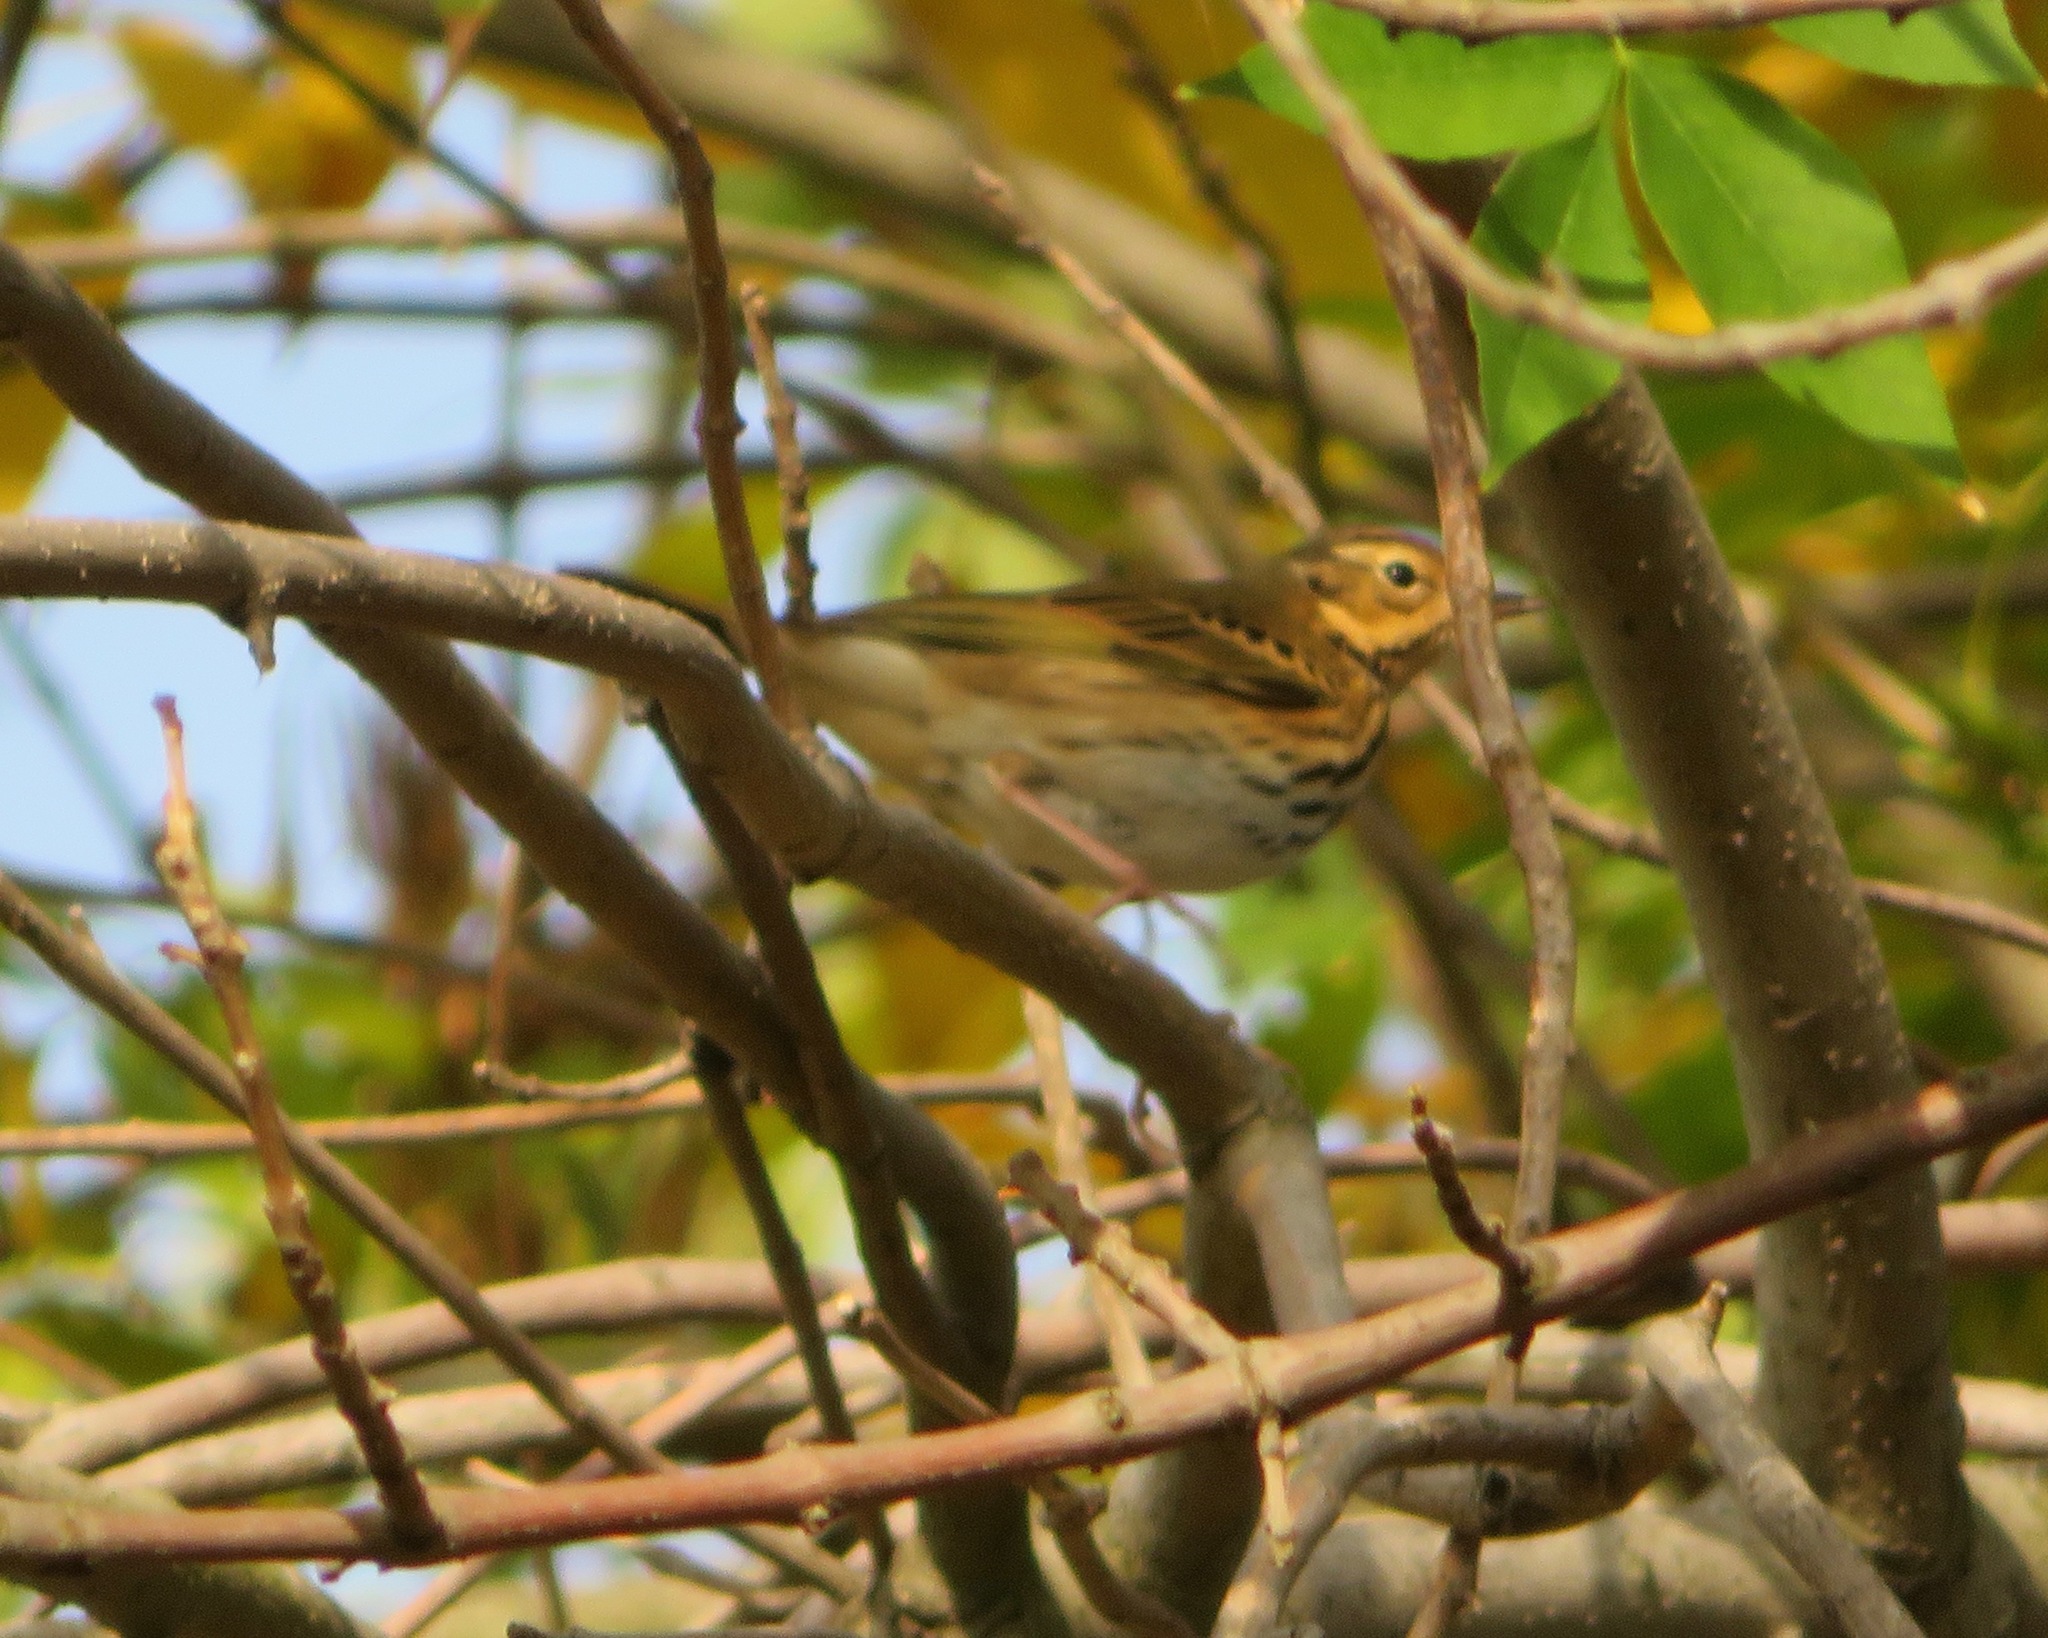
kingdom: Animalia
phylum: Chordata
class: Aves
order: Passeriformes
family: Motacillidae
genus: Anthus
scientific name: Anthus hodgsoni
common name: Olive-backed pipit
